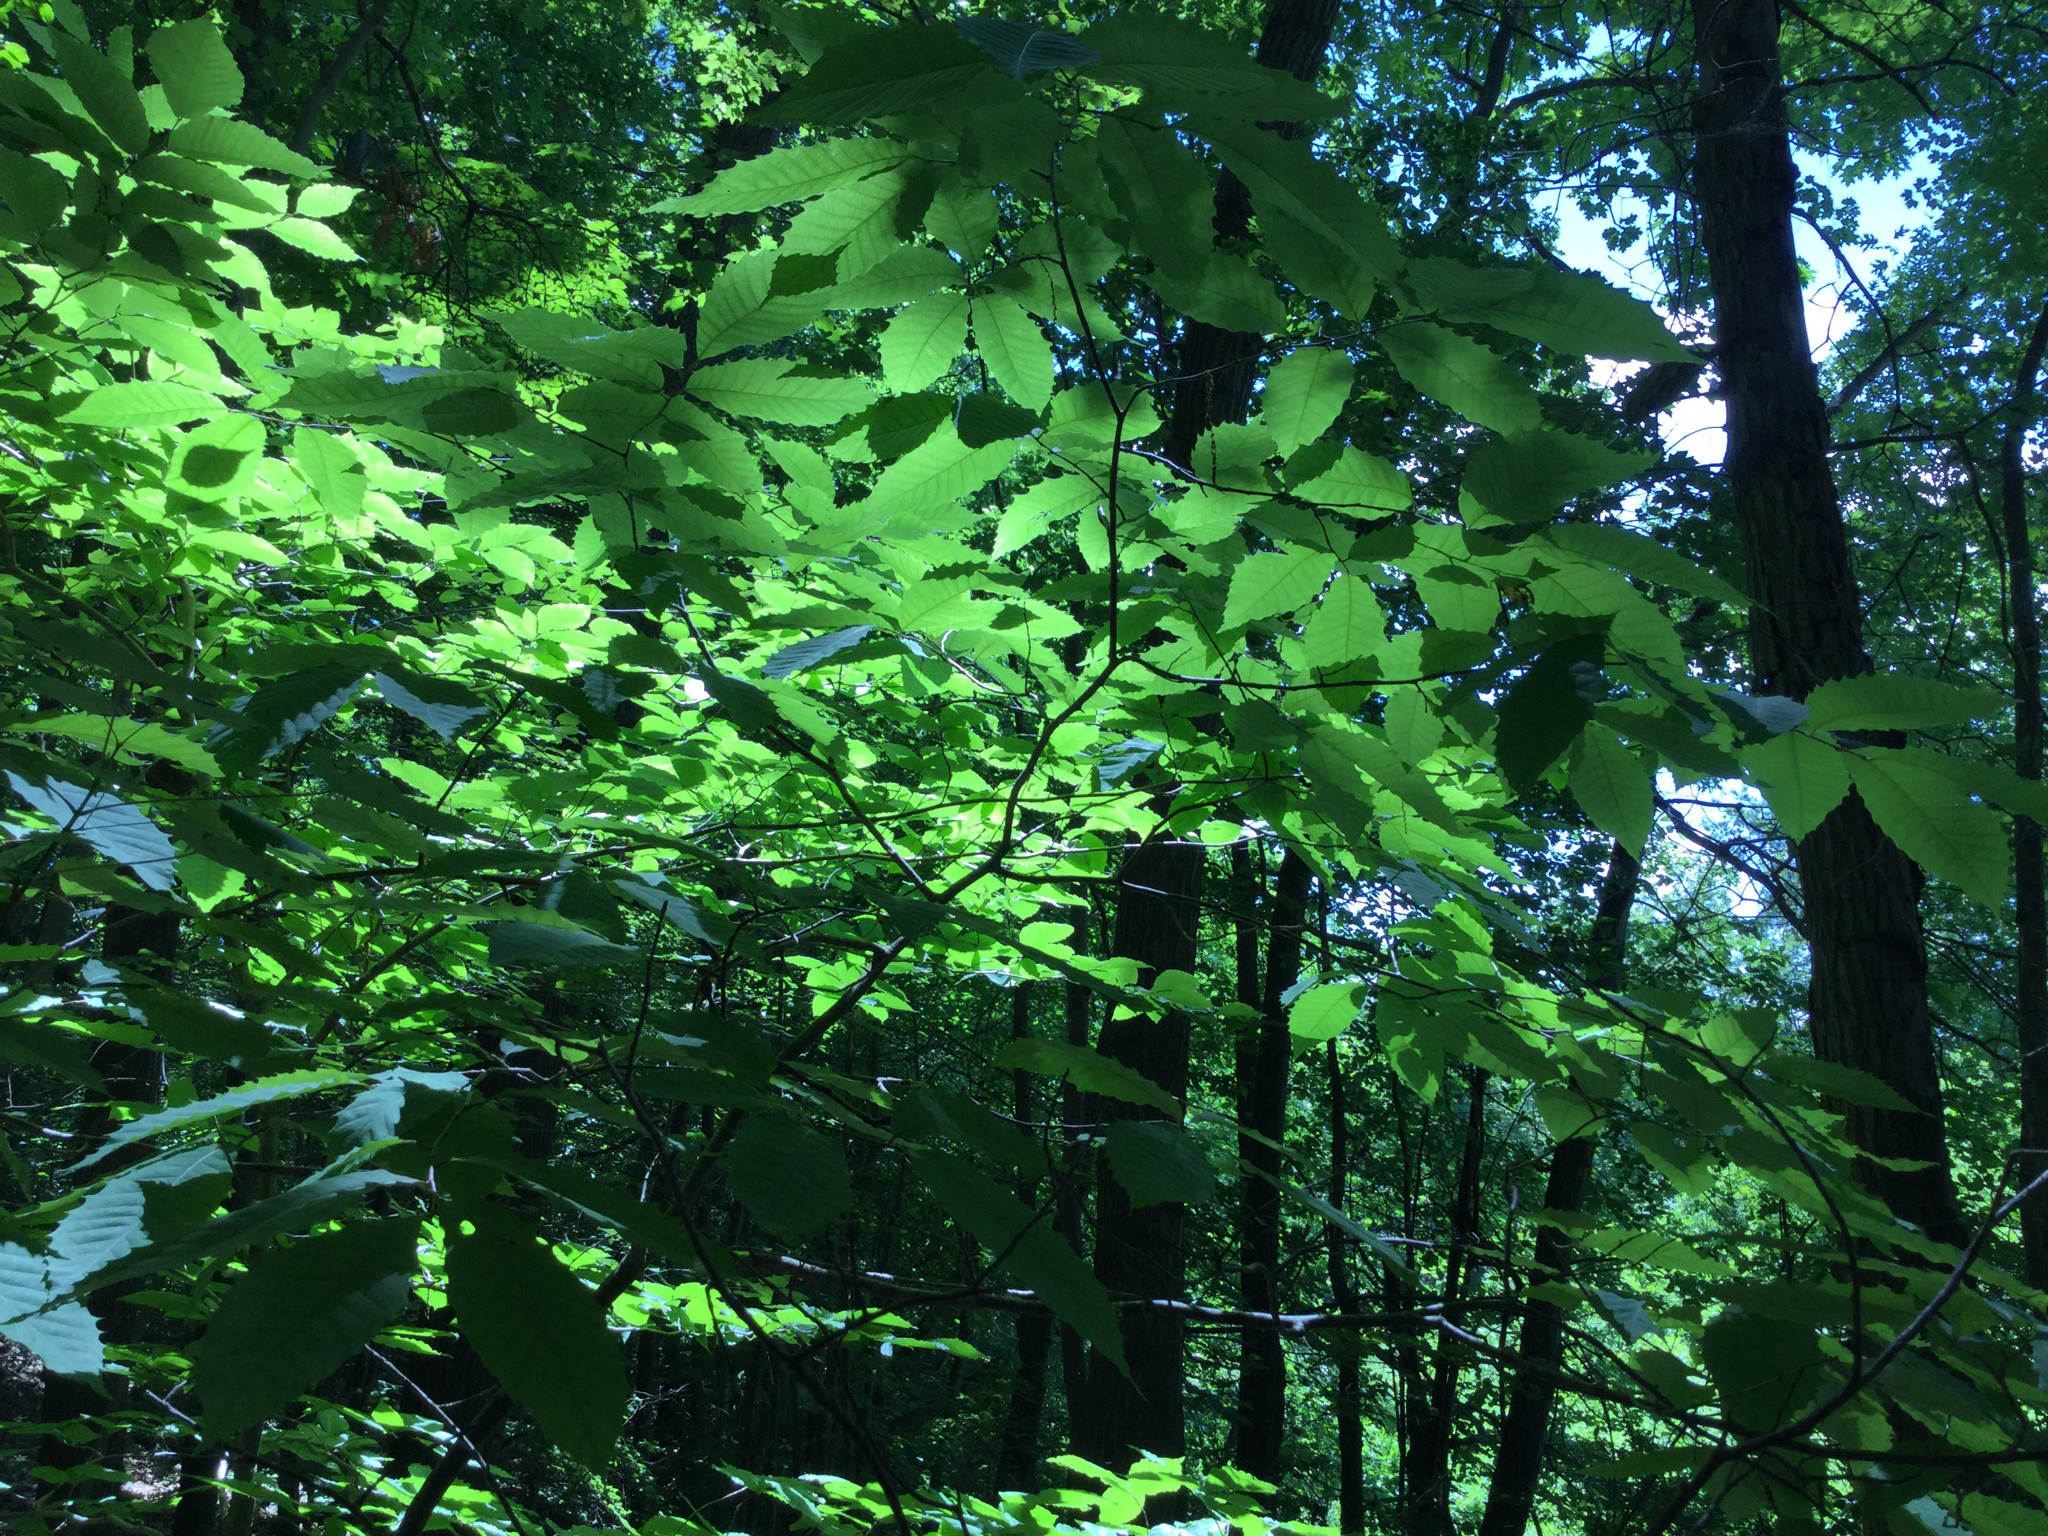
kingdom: Plantae
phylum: Tracheophyta
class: Magnoliopsida
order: Fagales
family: Fagaceae
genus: Castanea
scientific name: Castanea dentata
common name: American chestnut
